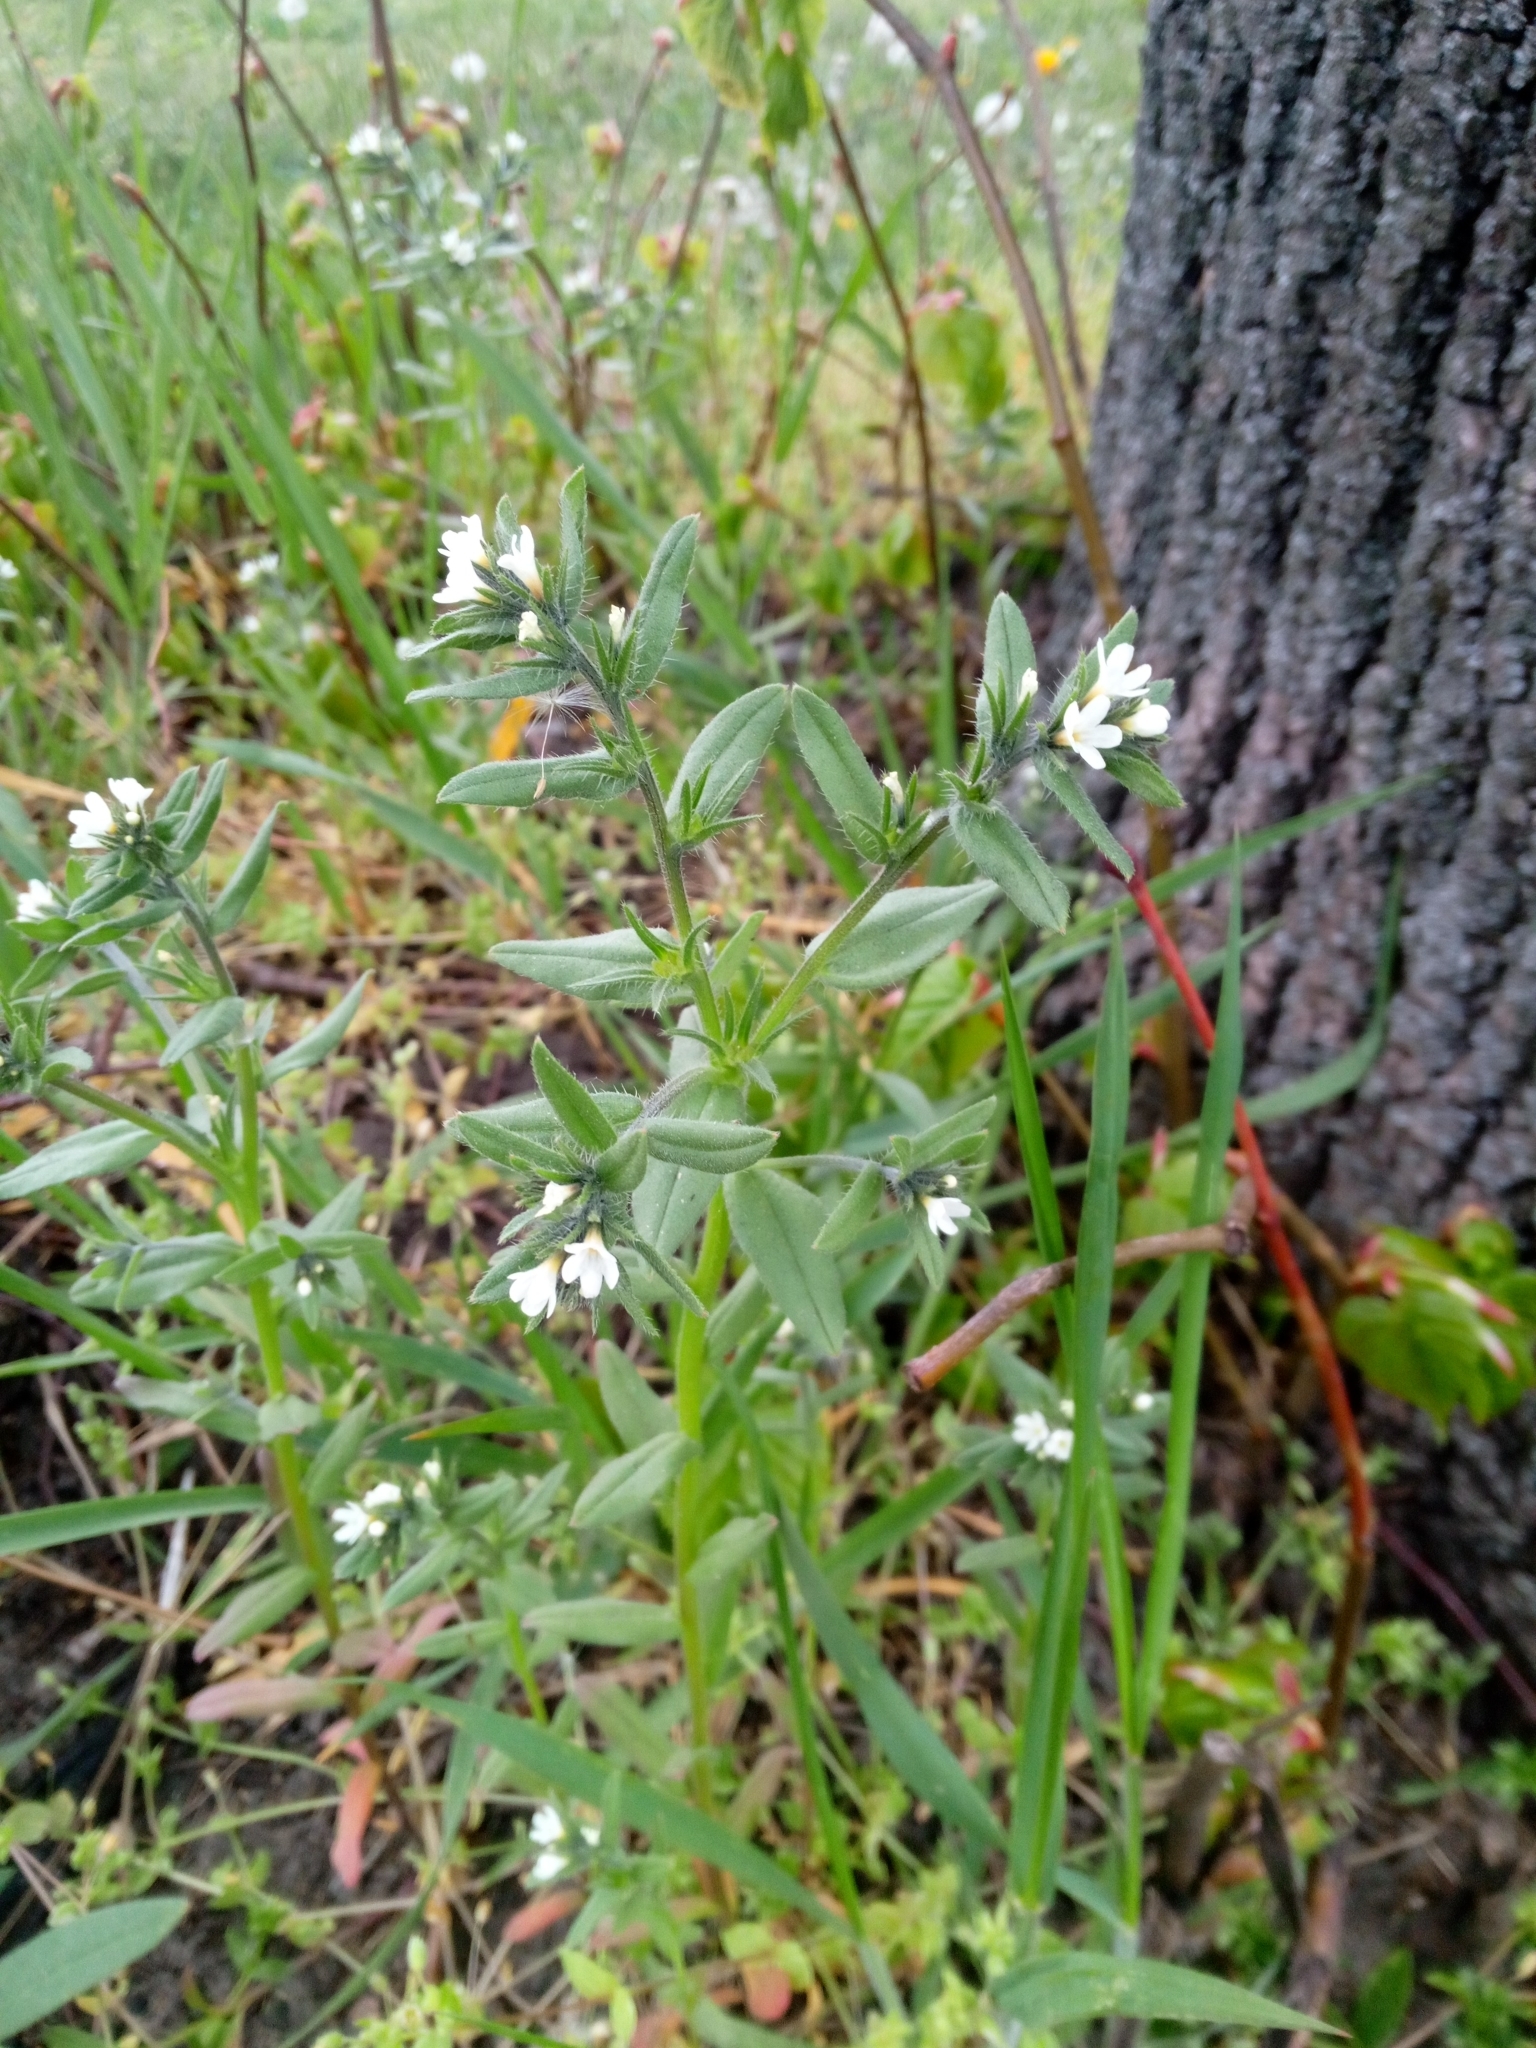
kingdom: Plantae
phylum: Tracheophyta
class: Magnoliopsida
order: Boraginales
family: Boraginaceae
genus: Buglossoides
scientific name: Buglossoides arvensis
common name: Corn gromwell
